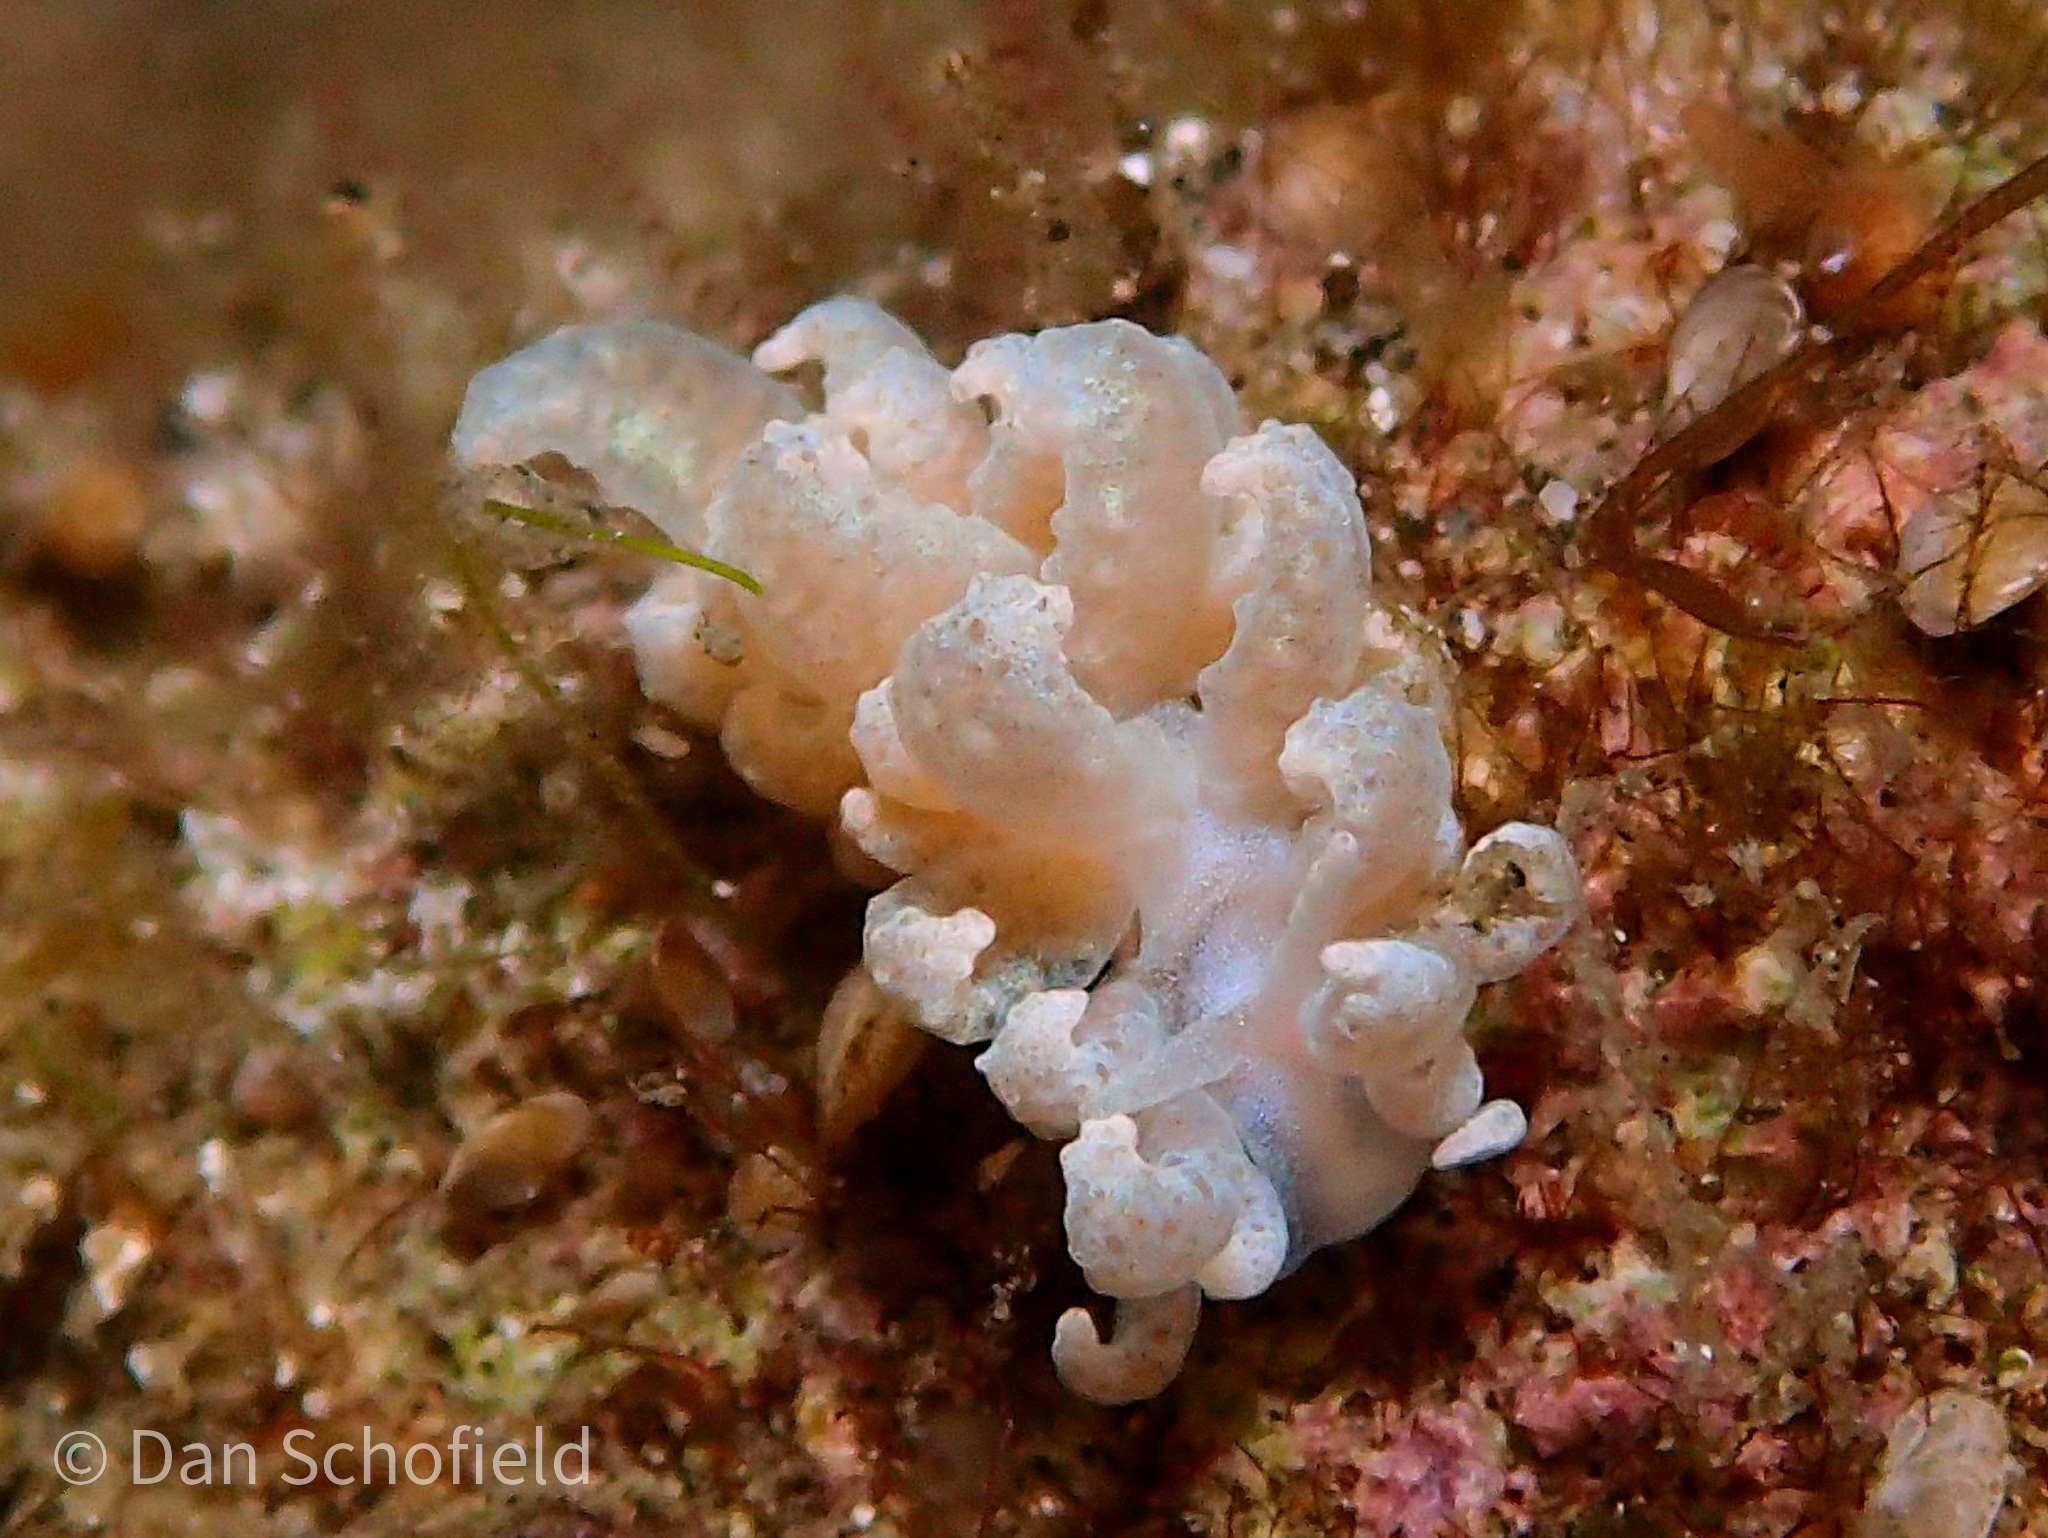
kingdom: Animalia
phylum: Mollusca
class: Gastropoda
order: Nudibranchia
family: Myrrhinidae
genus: Phyllodesmium
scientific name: Phyllodesmium crypticum
